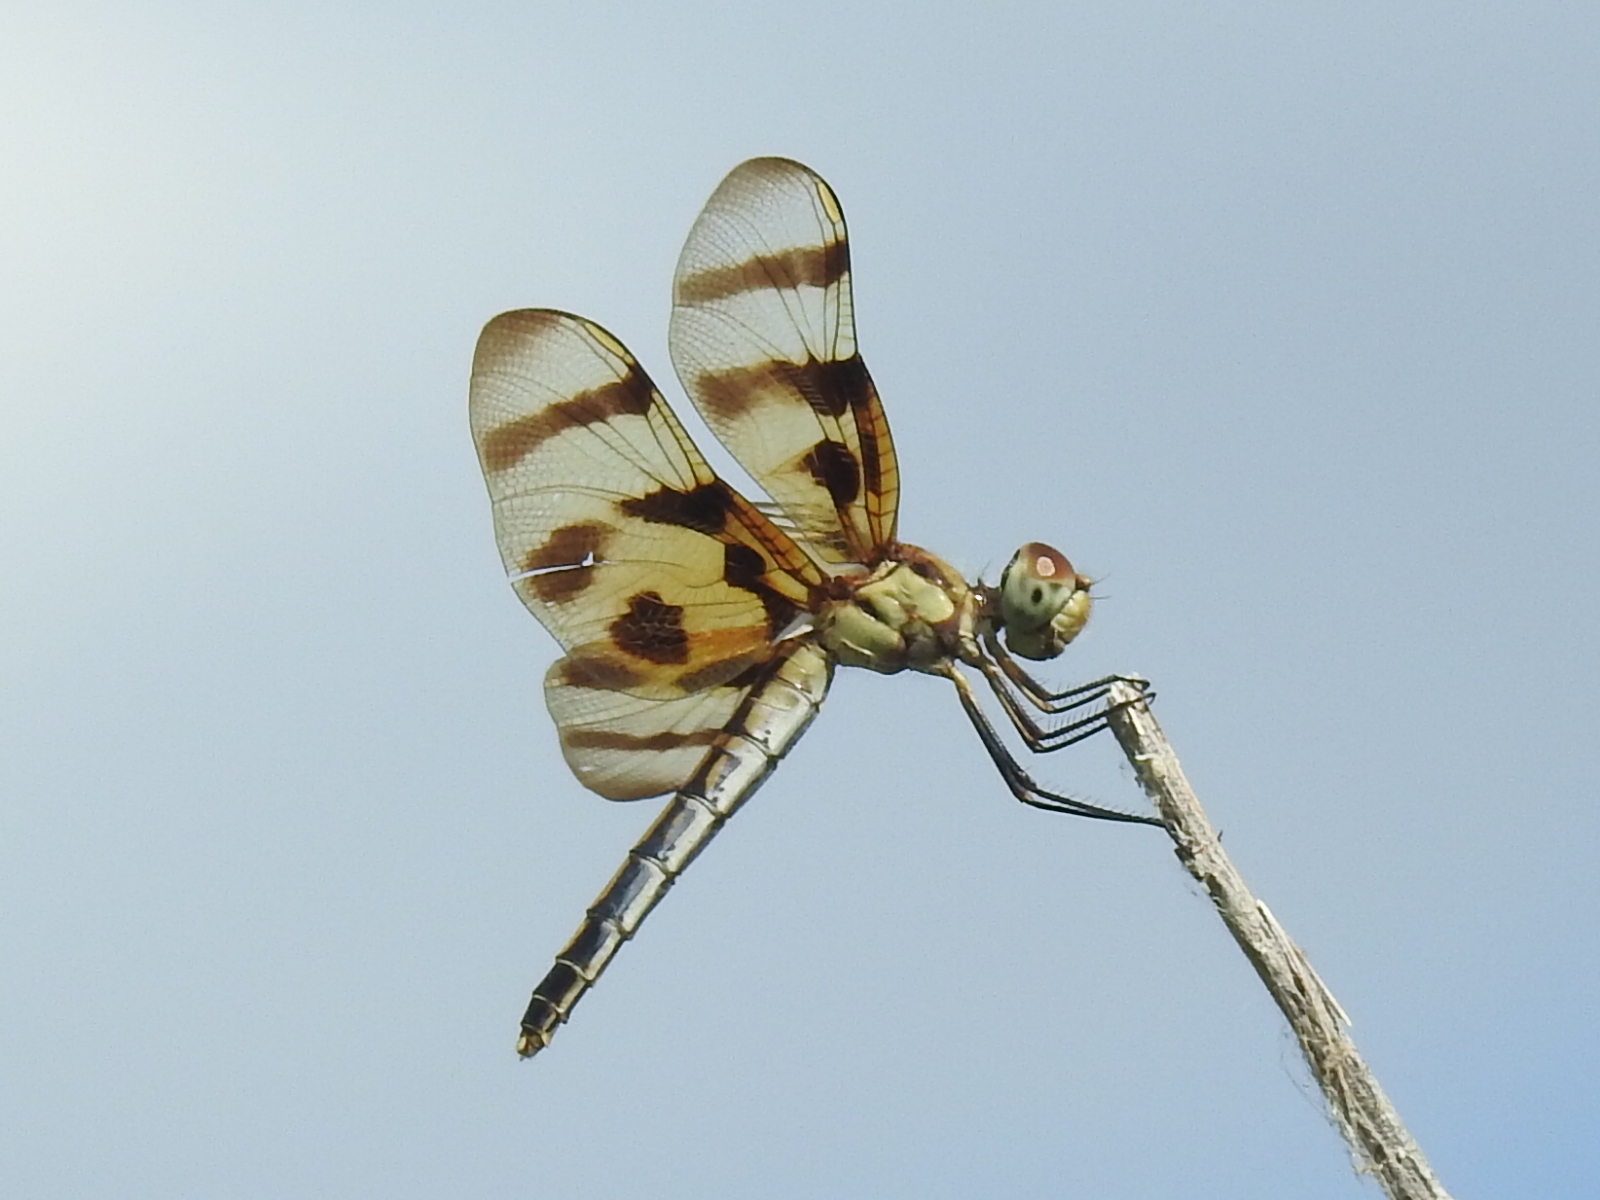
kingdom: Animalia
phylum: Arthropoda
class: Insecta
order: Odonata
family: Libellulidae
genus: Celithemis
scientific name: Celithemis eponina
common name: Halloween pennant
